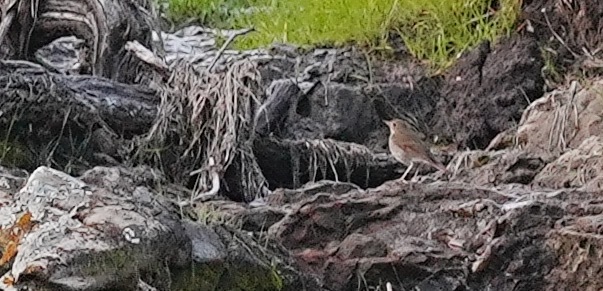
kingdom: Animalia
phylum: Chordata
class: Aves
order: Passeriformes
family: Turdidae
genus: Catharus
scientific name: Catharus guttatus
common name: Hermit thrush
